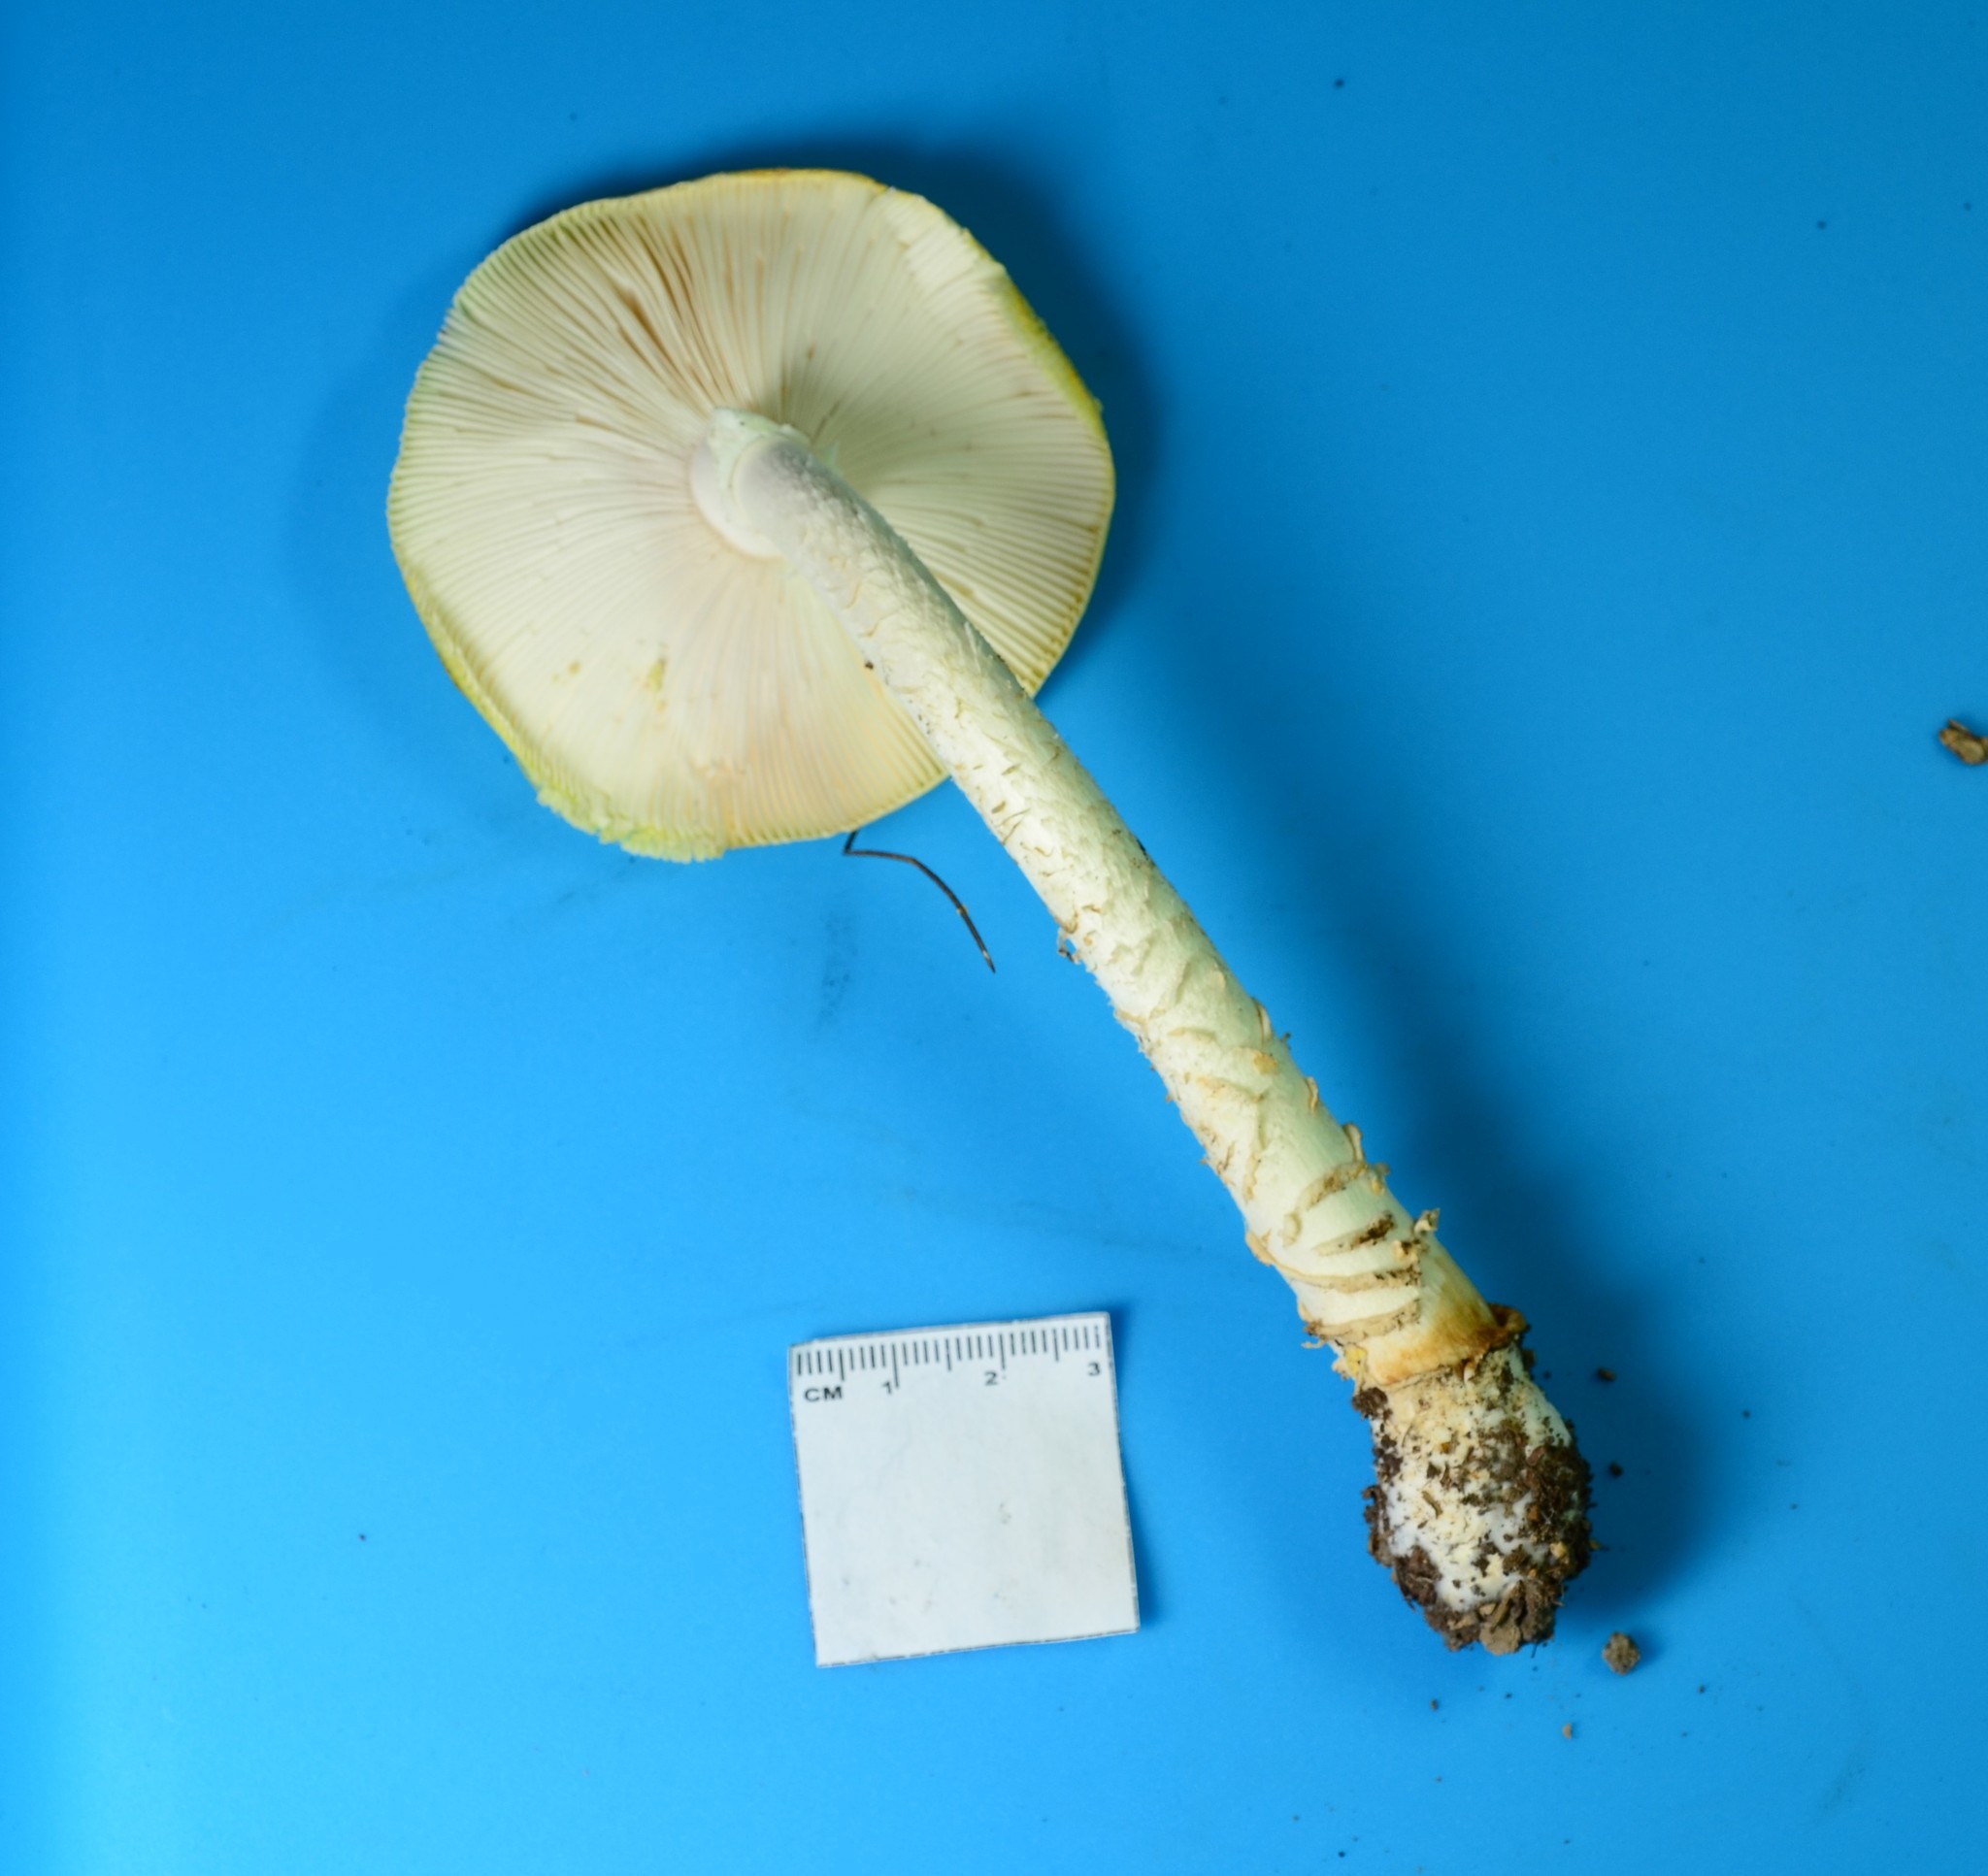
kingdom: Fungi
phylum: Basidiomycota
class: Agaricomycetes
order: Agaricales
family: Amanitaceae
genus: Amanita
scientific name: Amanita muscaria
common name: Fly agaric
